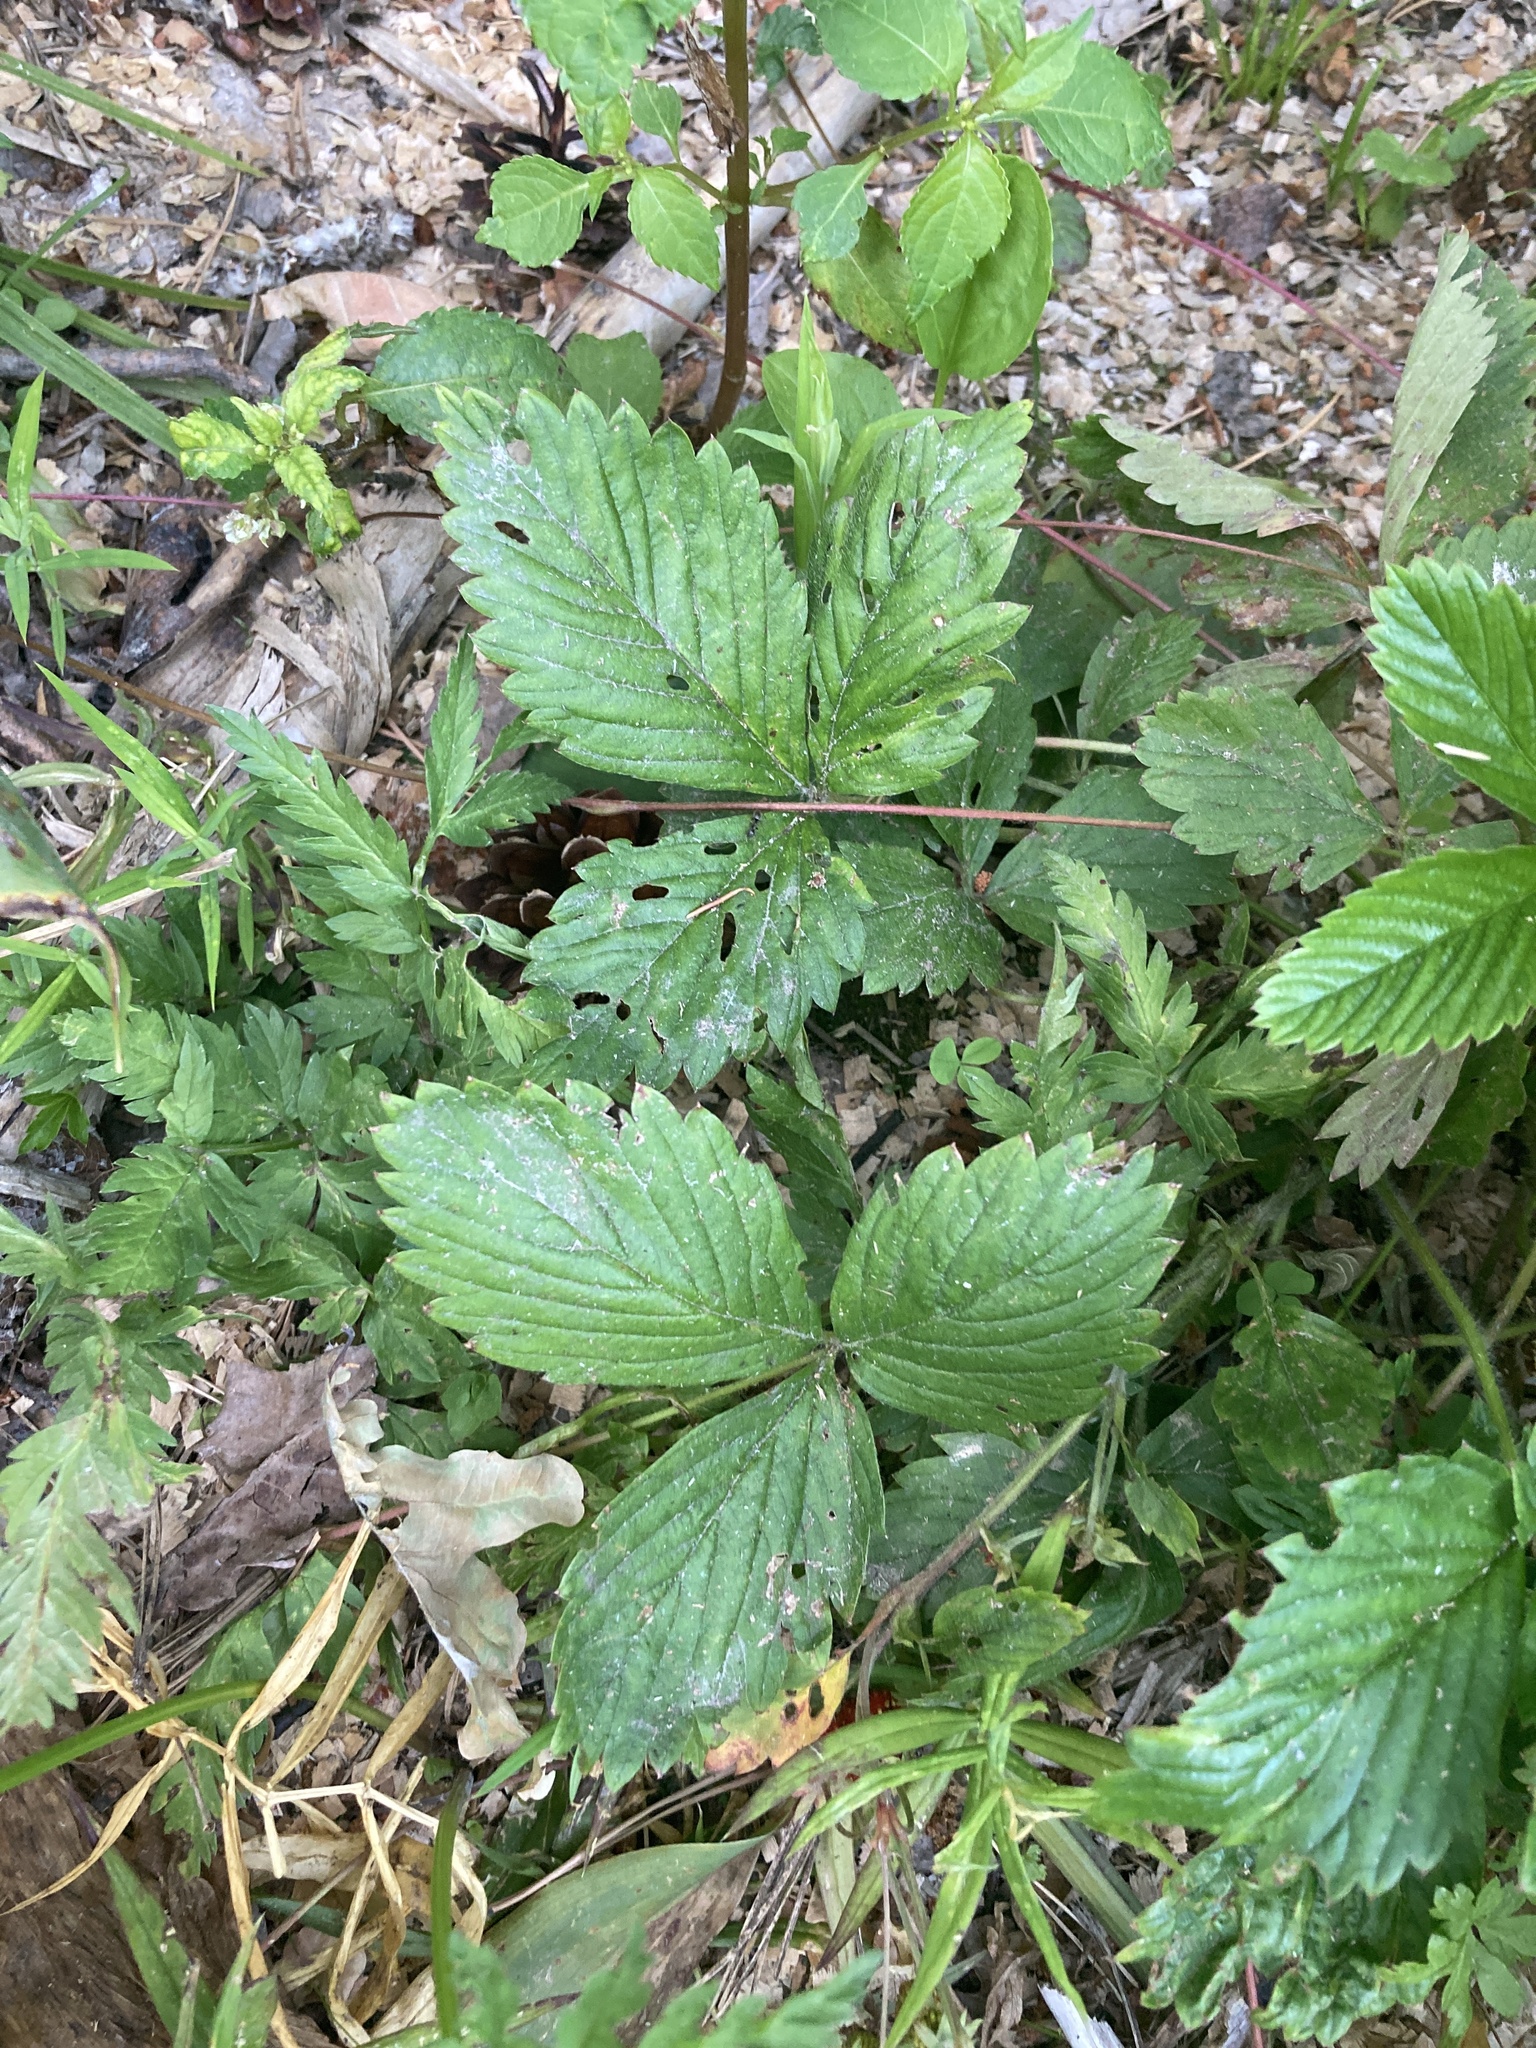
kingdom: Plantae
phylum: Tracheophyta
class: Magnoliopsida
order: Rosales
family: Rosaceae
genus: Fragaria
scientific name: Fragaria moschata
